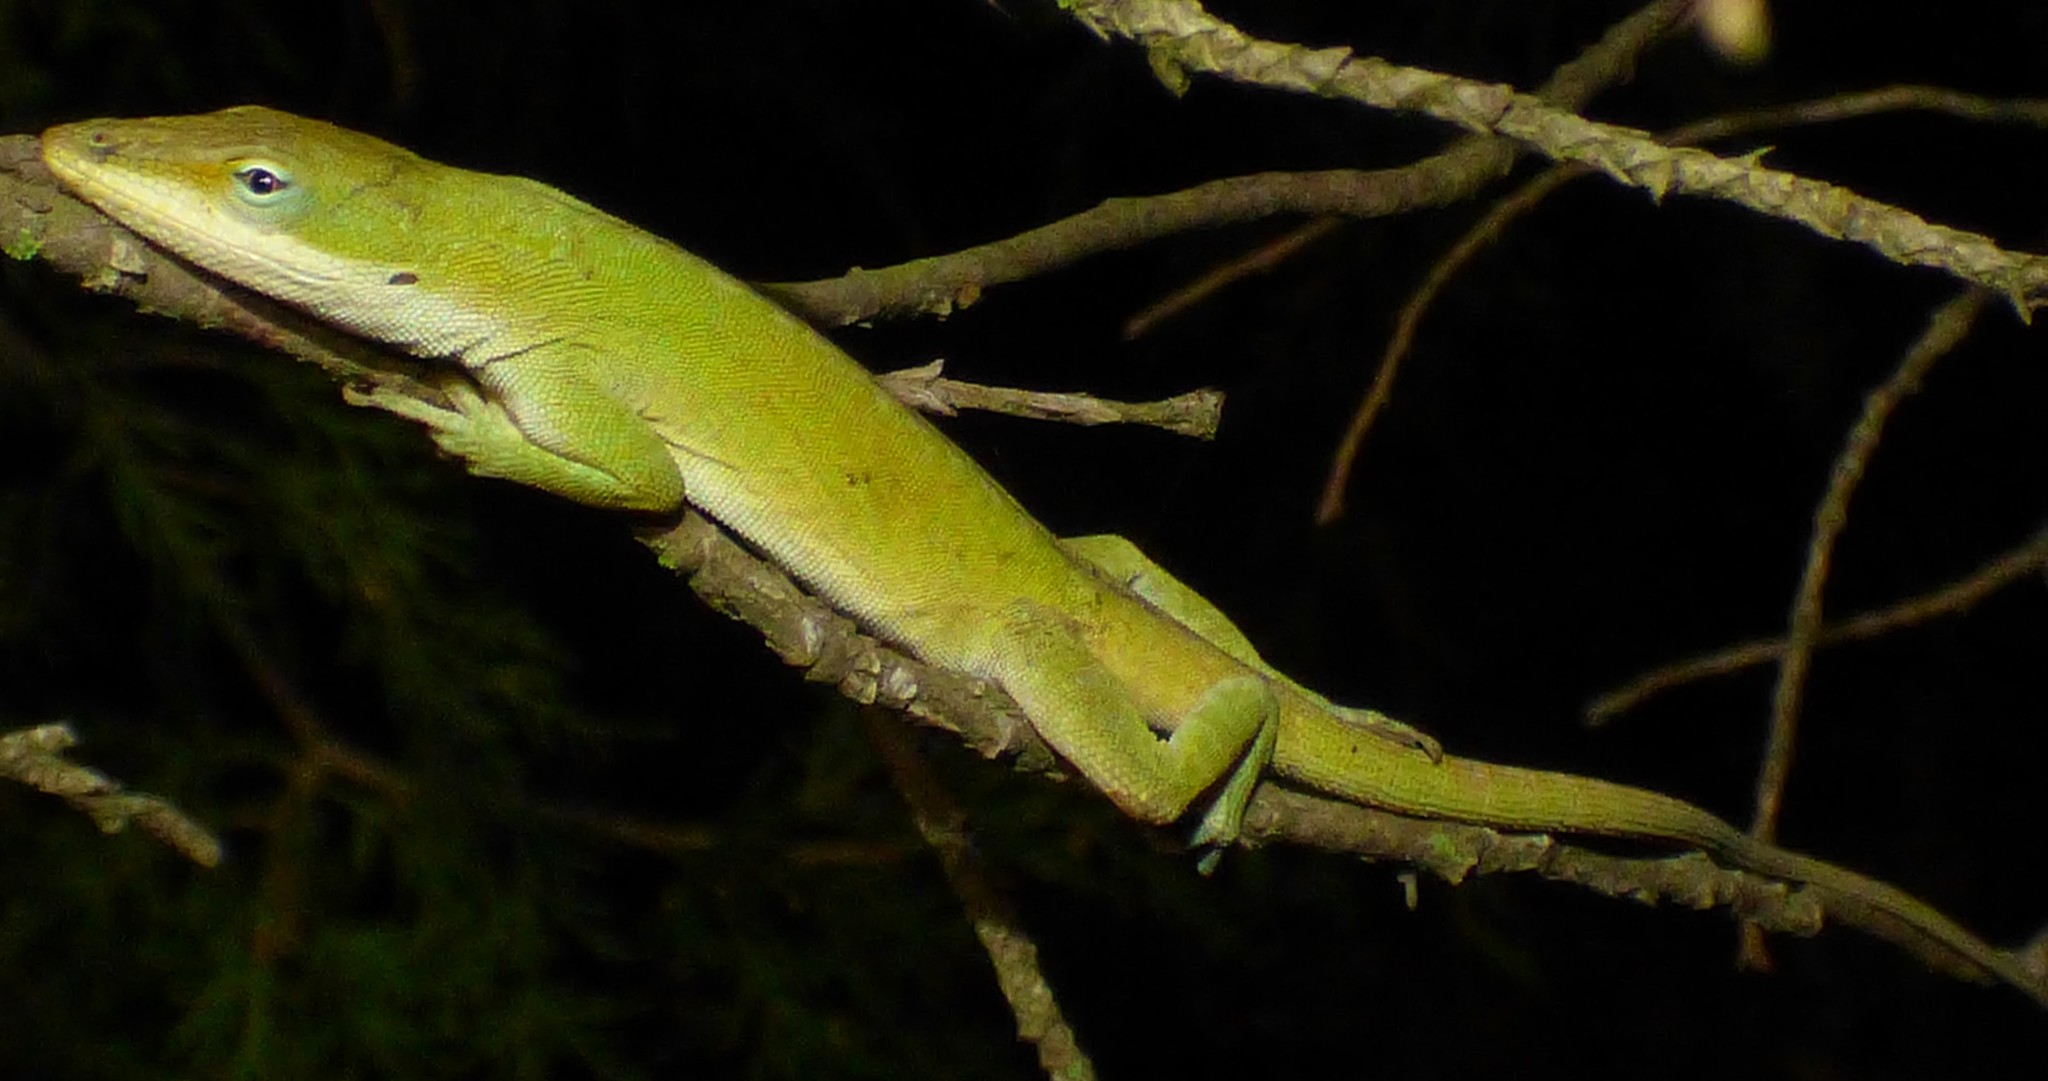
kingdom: Animalia
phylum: Chordata
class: Squamata
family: Dactyloidae
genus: Anolis
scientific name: Anolis carolinensis
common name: Green anole
